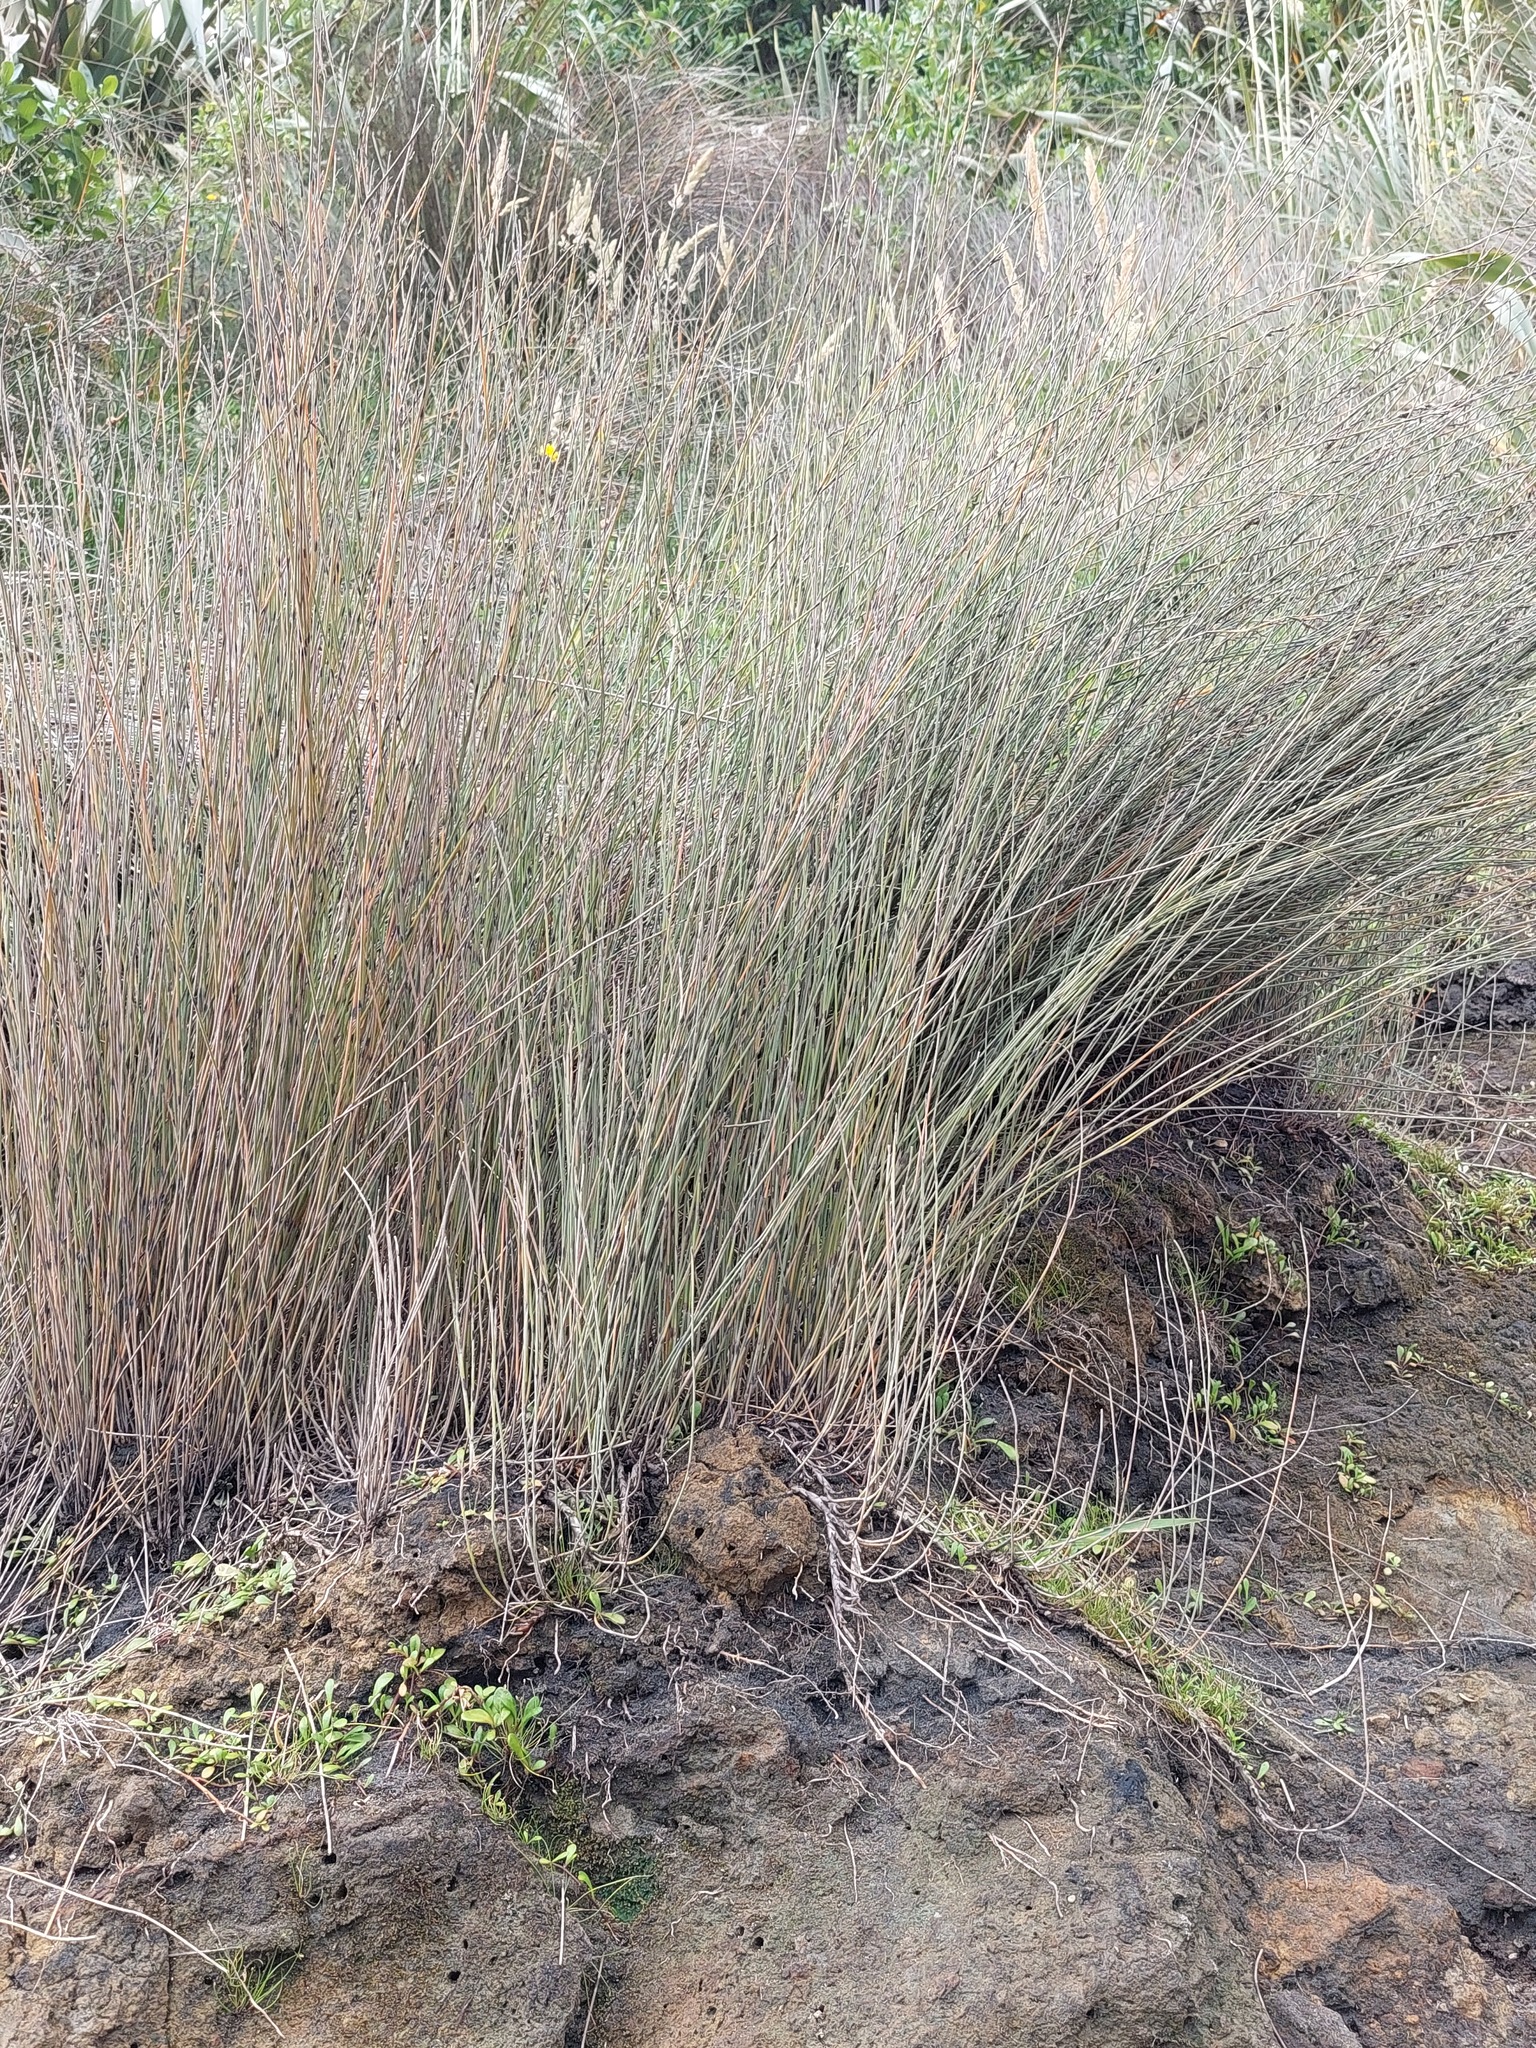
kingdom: Plantae
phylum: Tracheophyta
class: Liliopsida
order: Poales
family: Restionaceae
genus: Apodasmia
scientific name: Apodasmia similis
